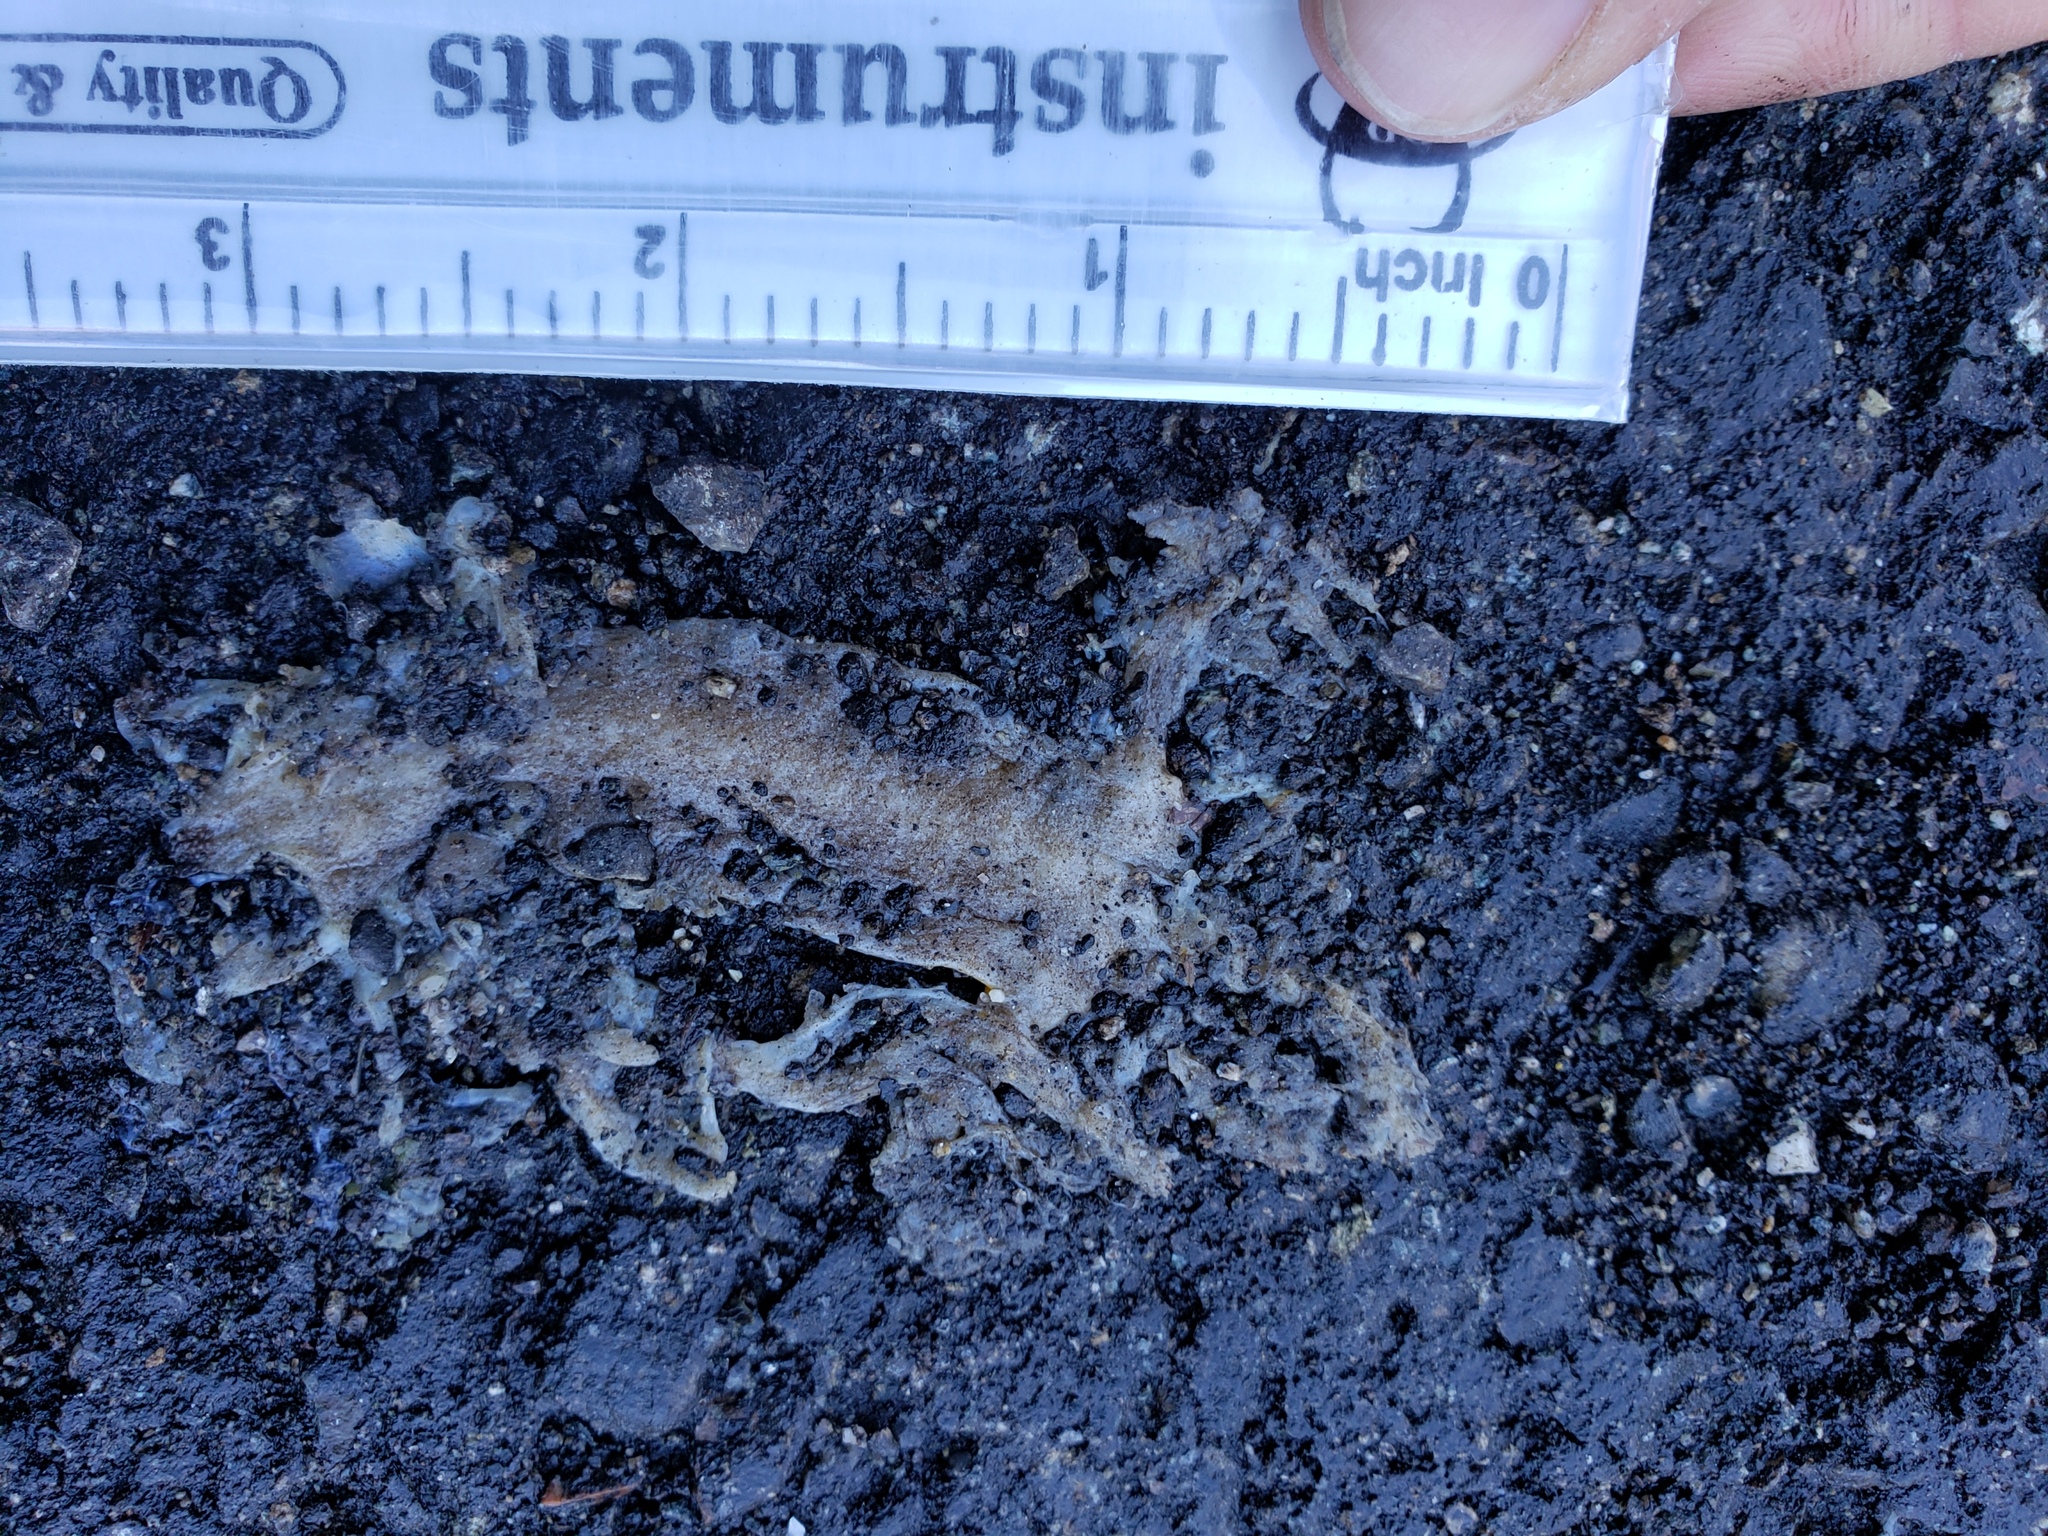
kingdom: Animalia
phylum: Chordata
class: Amphibia
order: Caudata
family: Salamandridae
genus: Taricha
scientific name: Taricha
